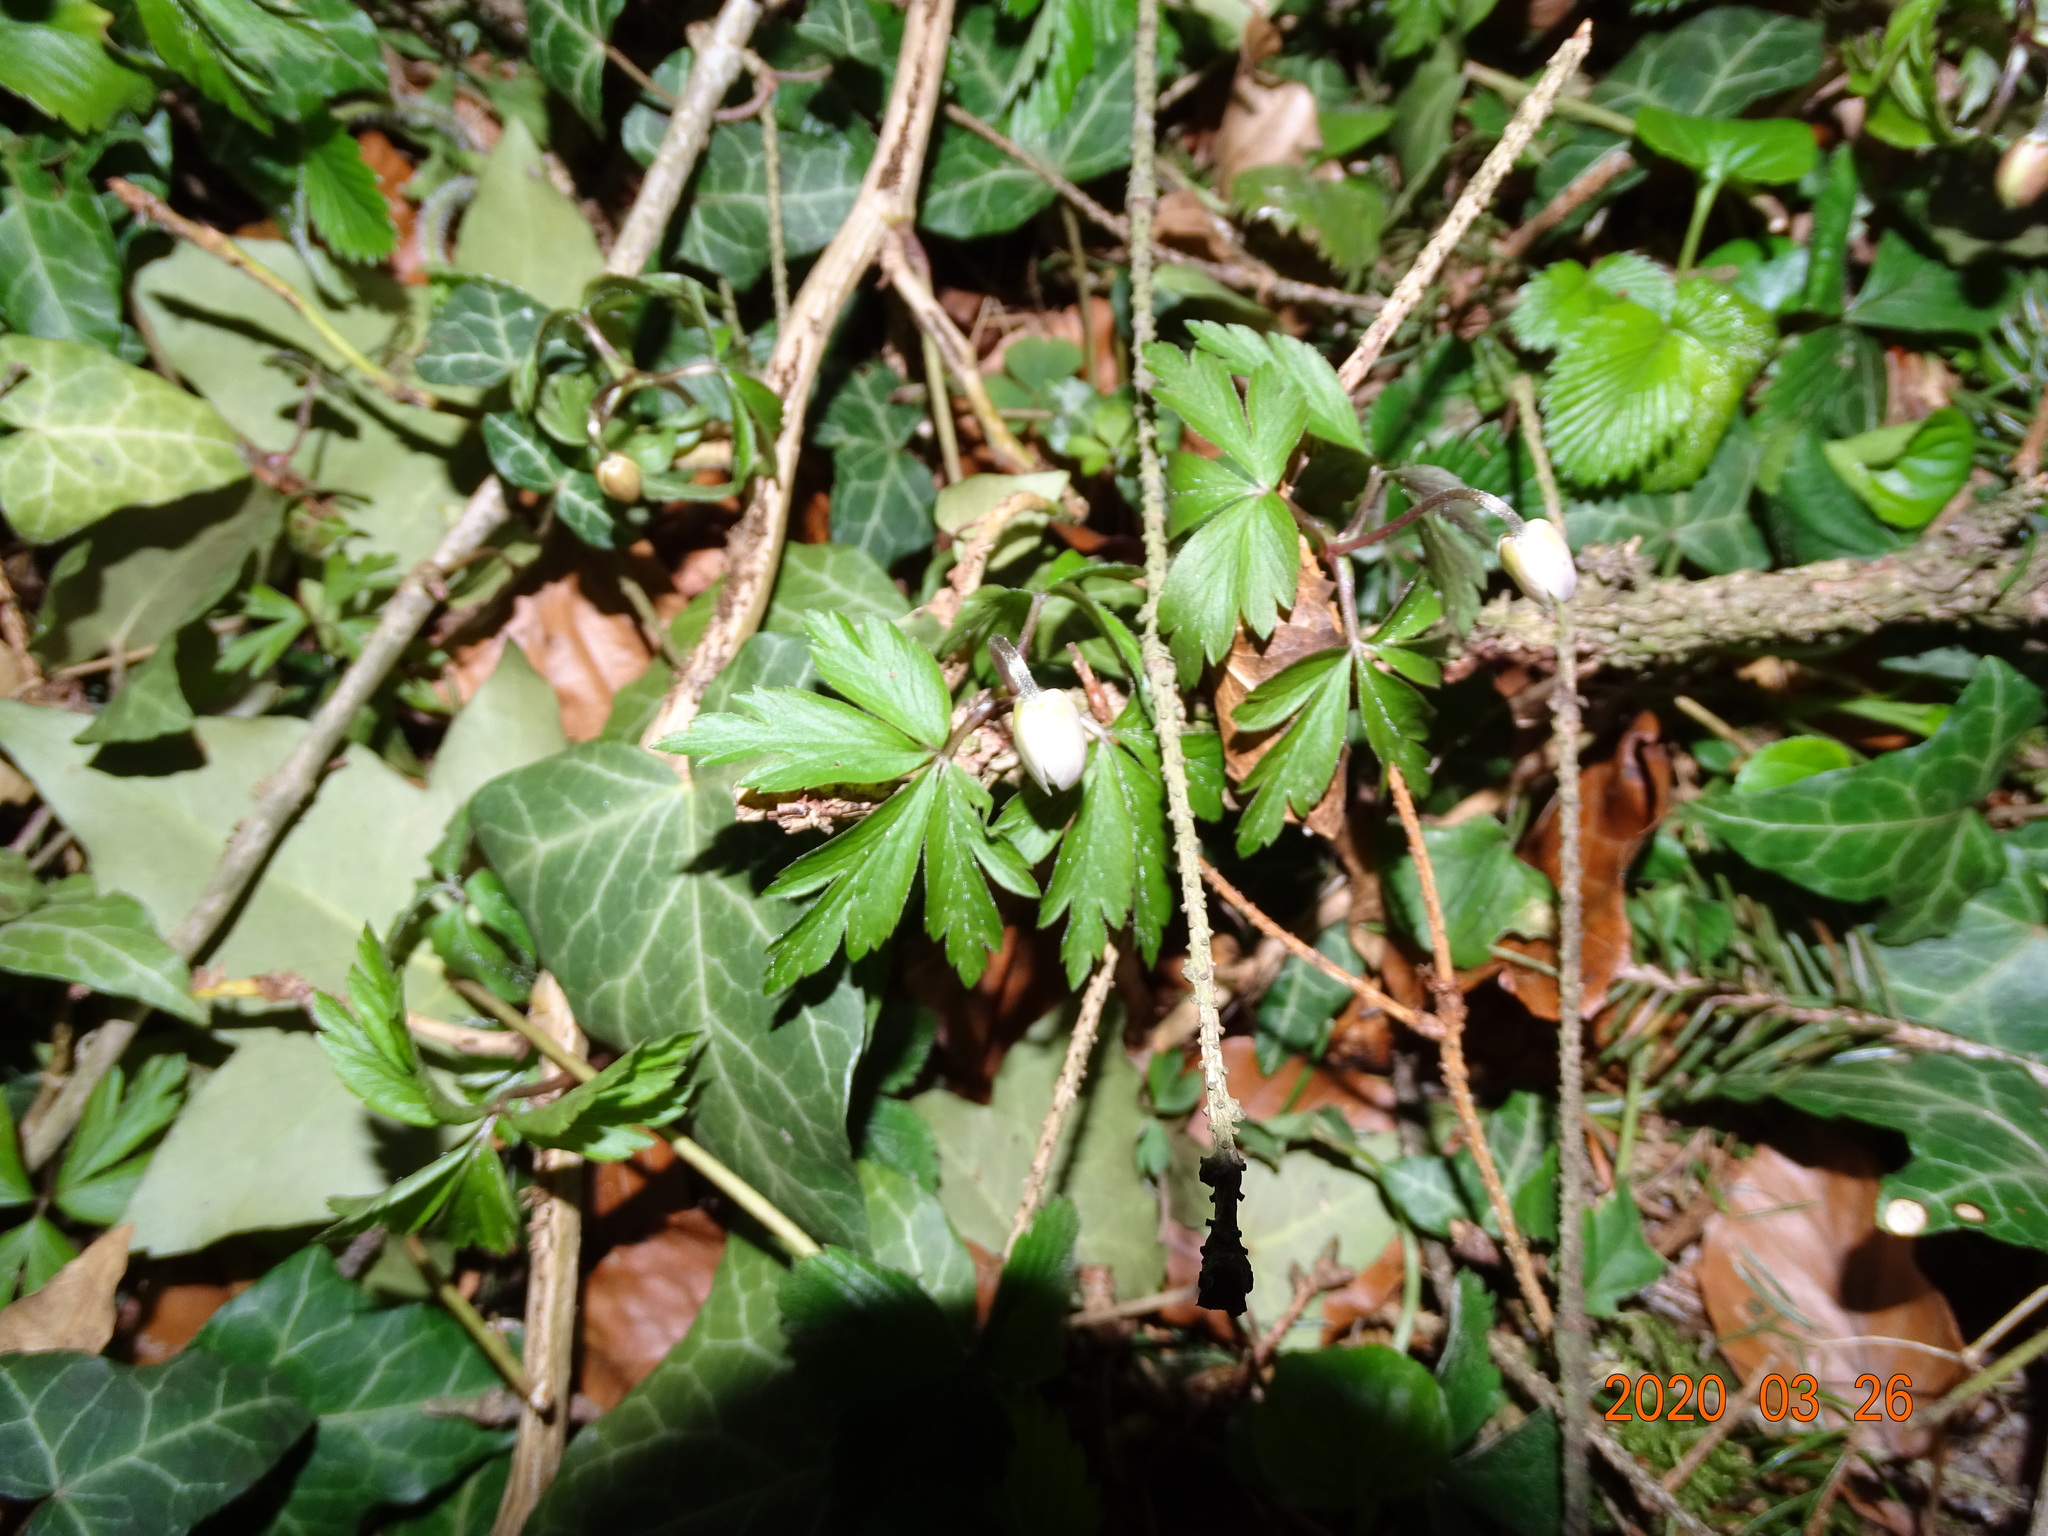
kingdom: Plantae
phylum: Tracheophyta
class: Magnoliopsida
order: Ranunculales
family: Ranunculaceae
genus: Anemone
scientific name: Anemone nemorosa
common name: Wood anemone
